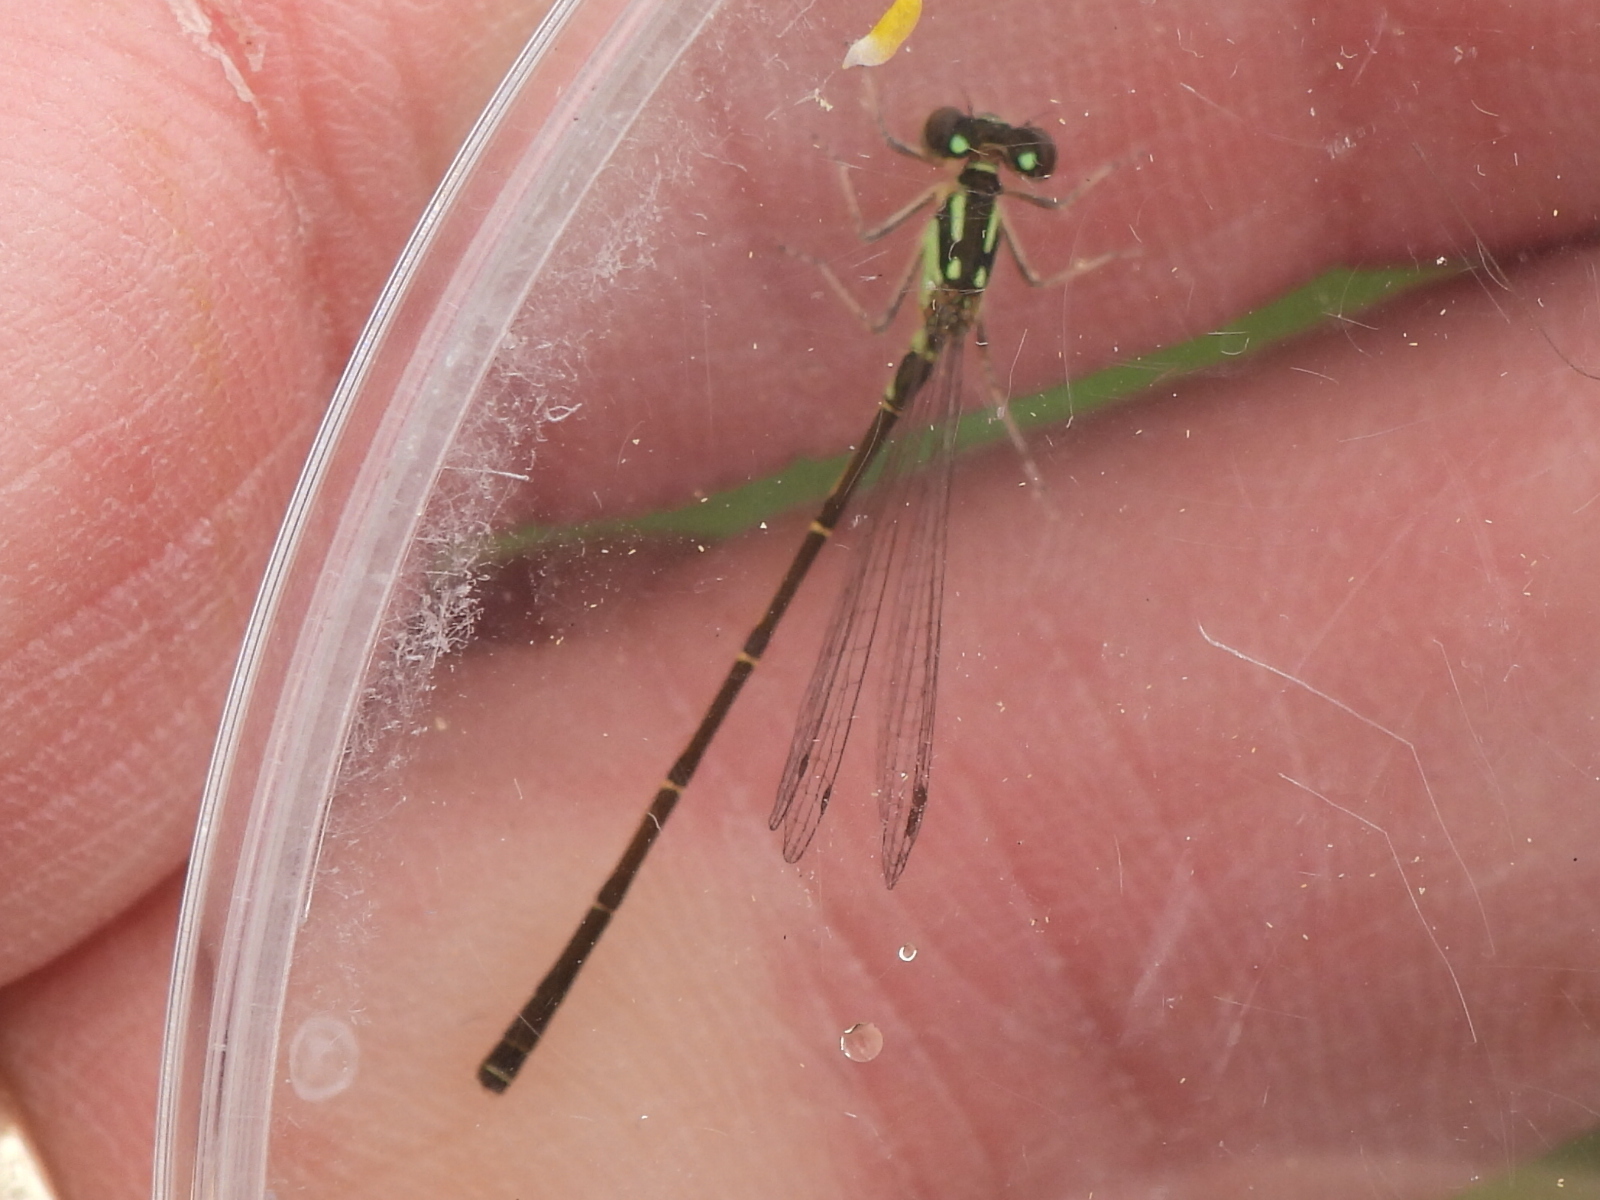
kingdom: Animalia
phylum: Arthropoda
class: Insecta
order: Odonata
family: Coenagrionidae
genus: Ischnura
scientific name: Ischnura posita
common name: Fragile forktail
